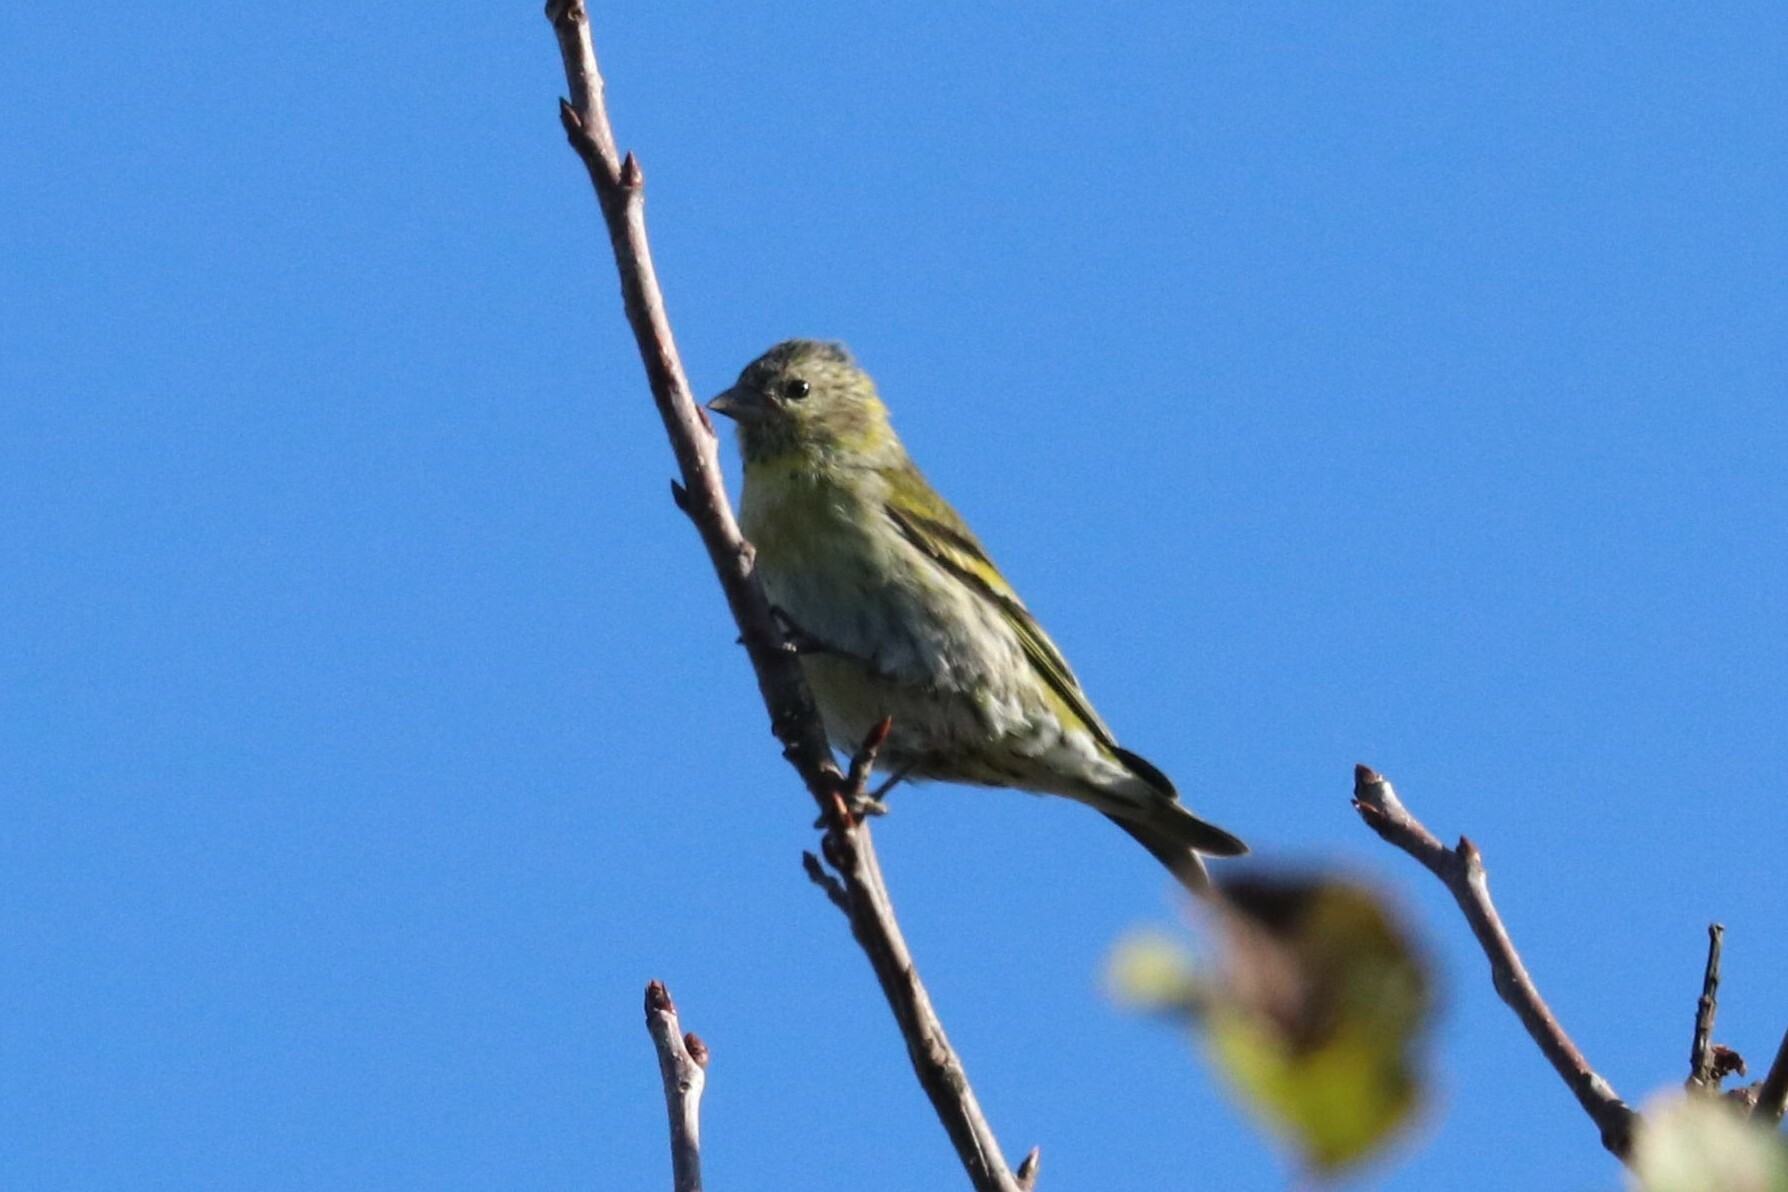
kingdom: Animalia
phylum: Chordata
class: Aves
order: Passeriformes
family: Fringillidae
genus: Spinus
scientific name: Spinus spinus
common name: Eurasian siskin
